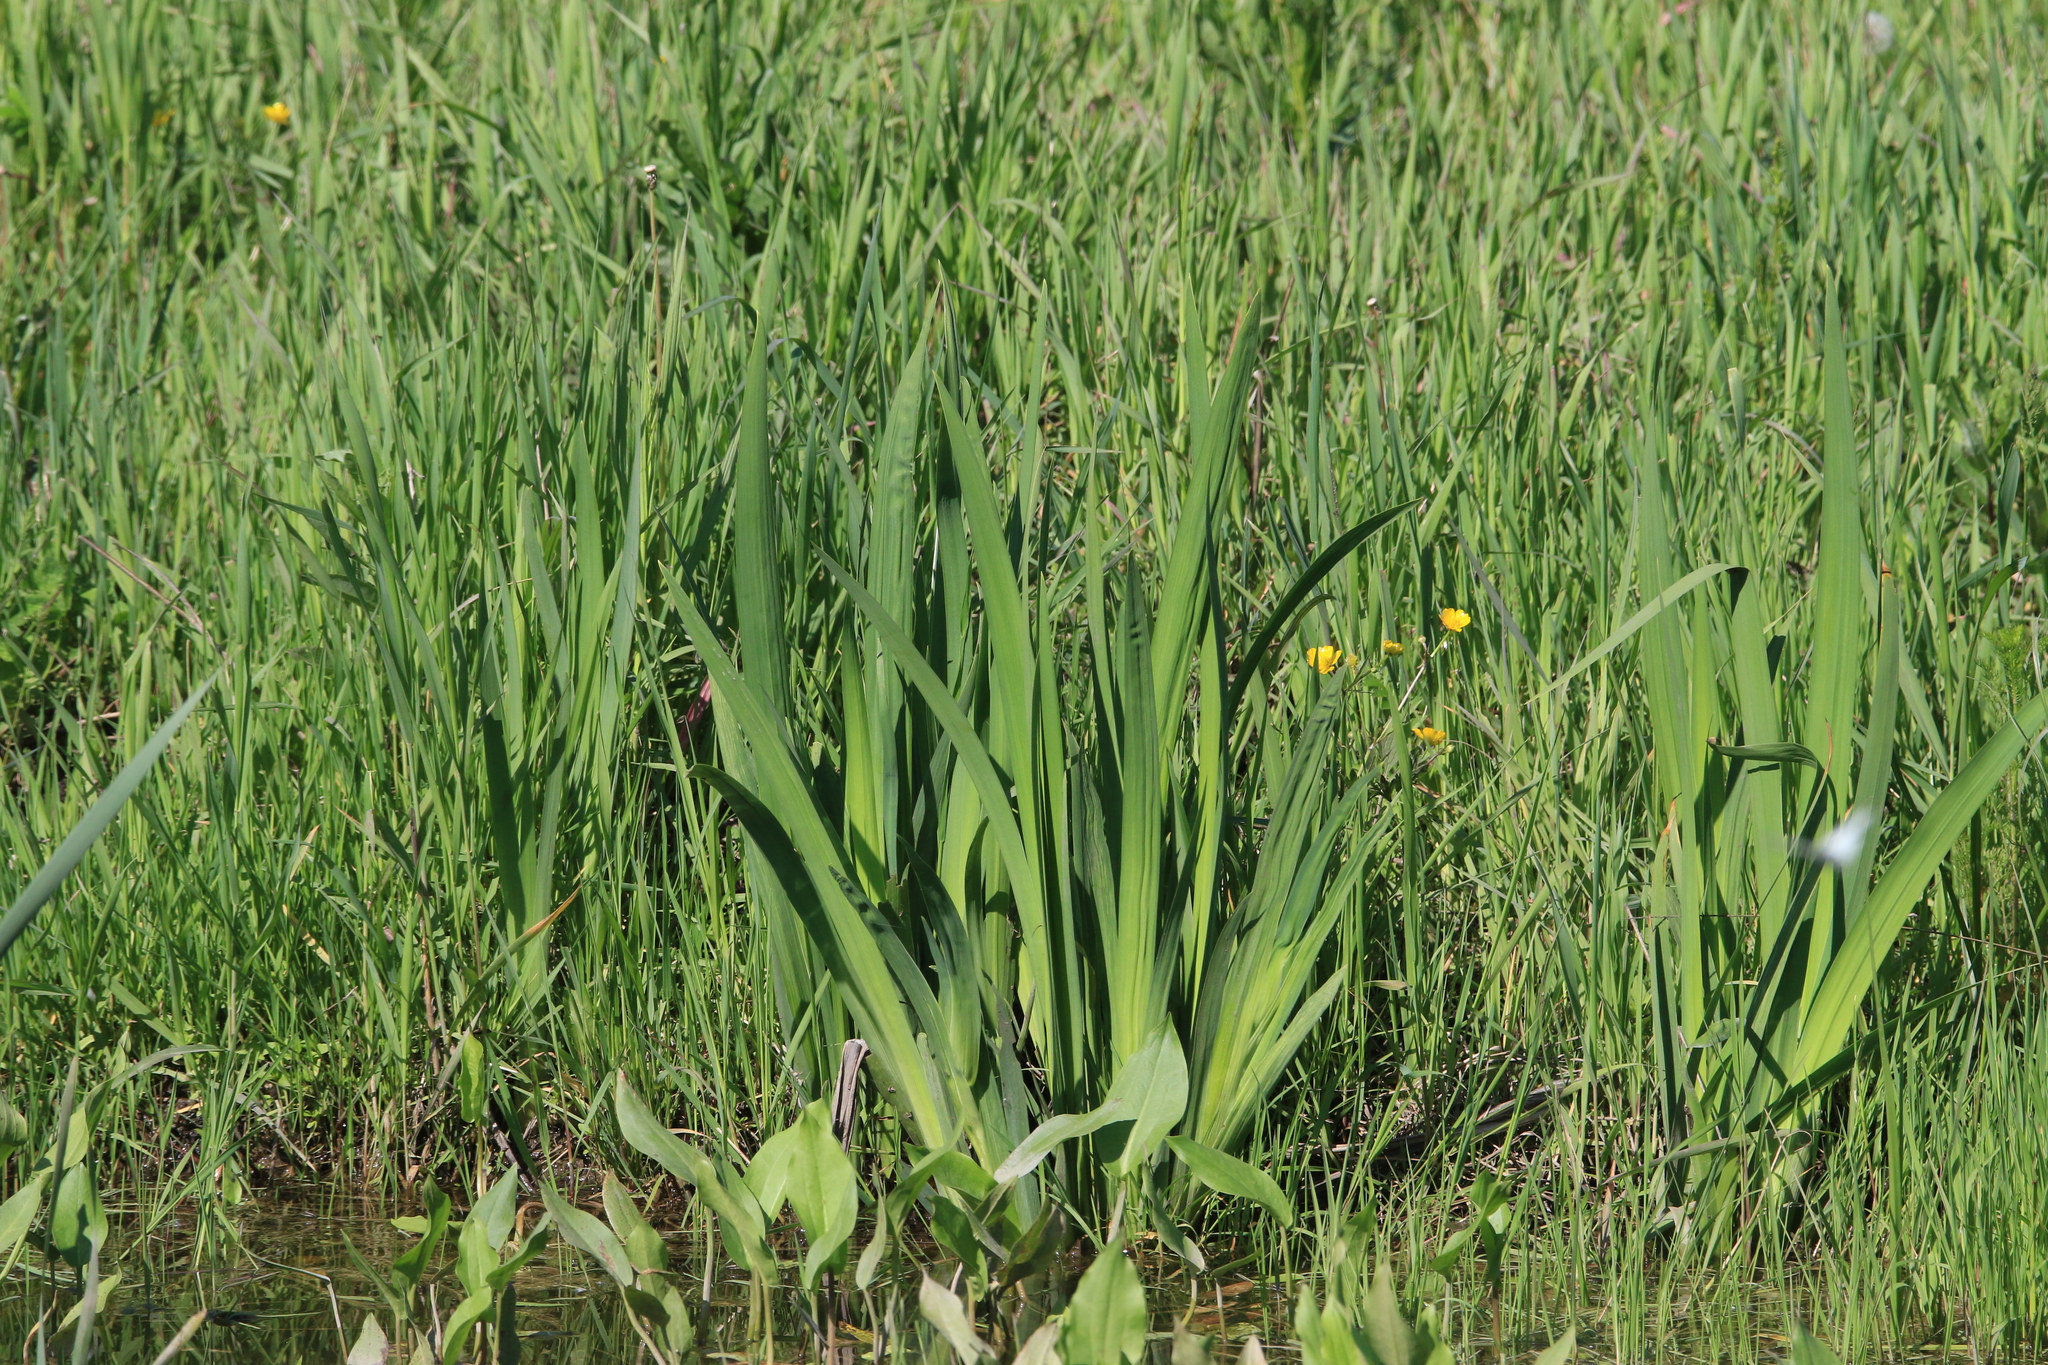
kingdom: Plantae
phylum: Tracheophyta
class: Liliopsida
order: Asparagales
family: Iridaceae
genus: Iris
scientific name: Iris pseudacorus
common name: Yellow flag
